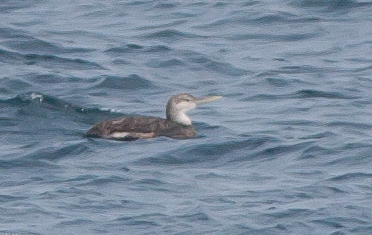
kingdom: Animalia
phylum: Chordata
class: Aves
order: Gaviiformes
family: Gaviidae
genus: Gavia
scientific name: Gavia adamsii
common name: Yellow-billed loon
